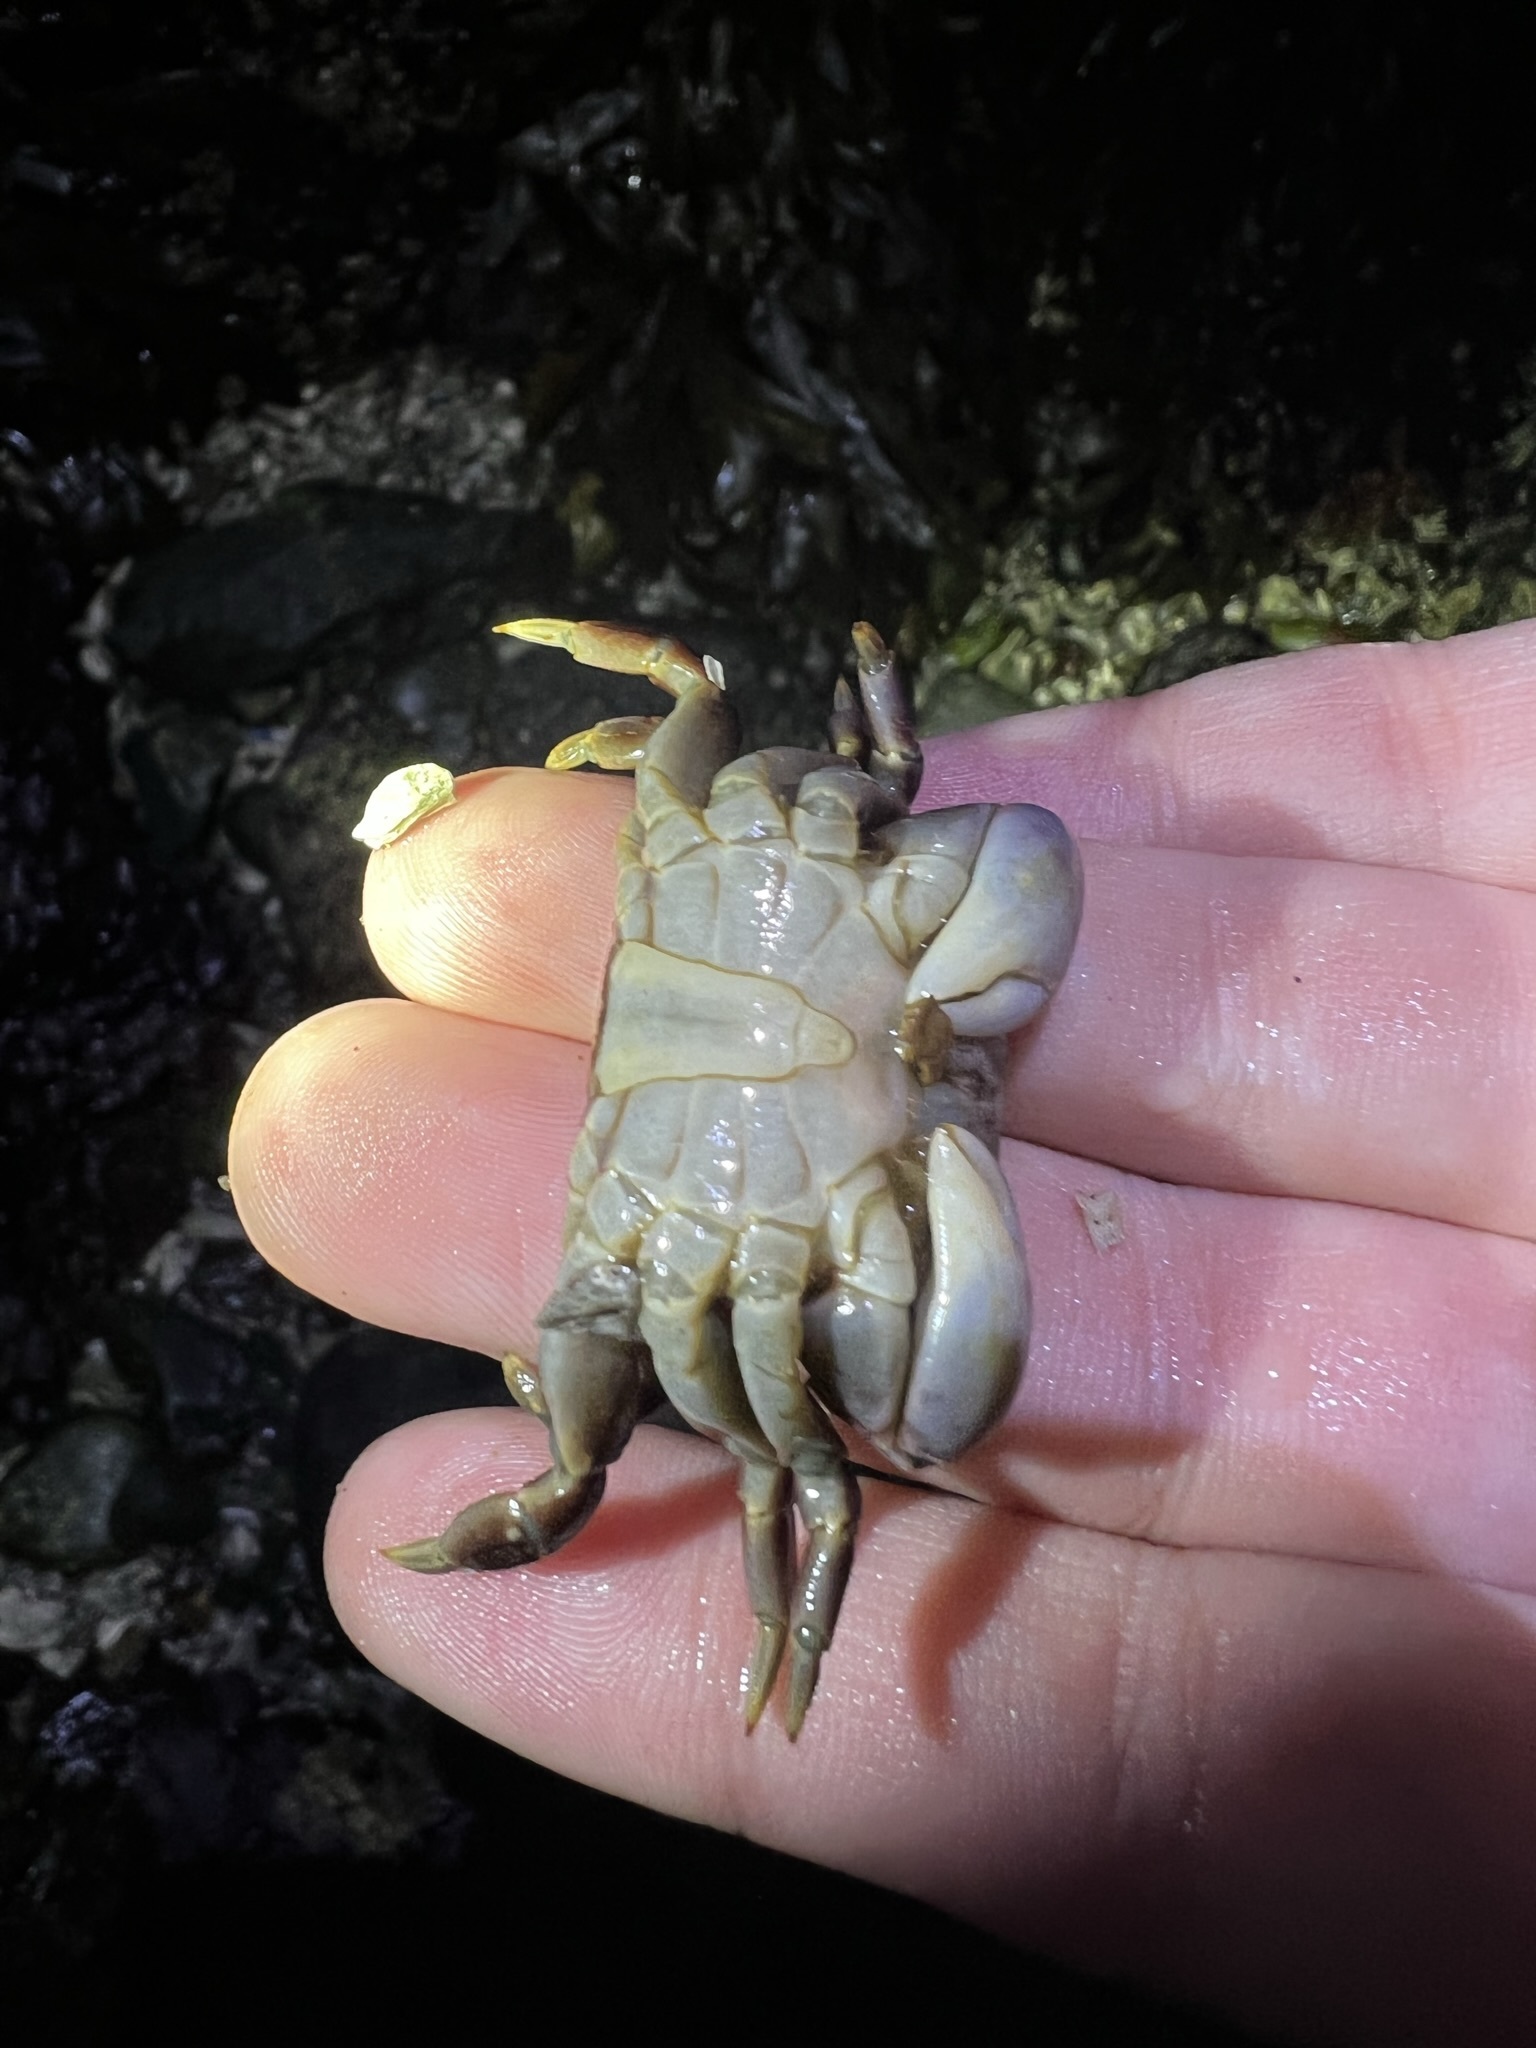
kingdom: Animalia
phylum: Arthropoda
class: Malacostraca
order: Decapoda
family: Varunidae
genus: Hemigrapsus
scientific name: Hemigrapsus nudus
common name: Purple shore crab
